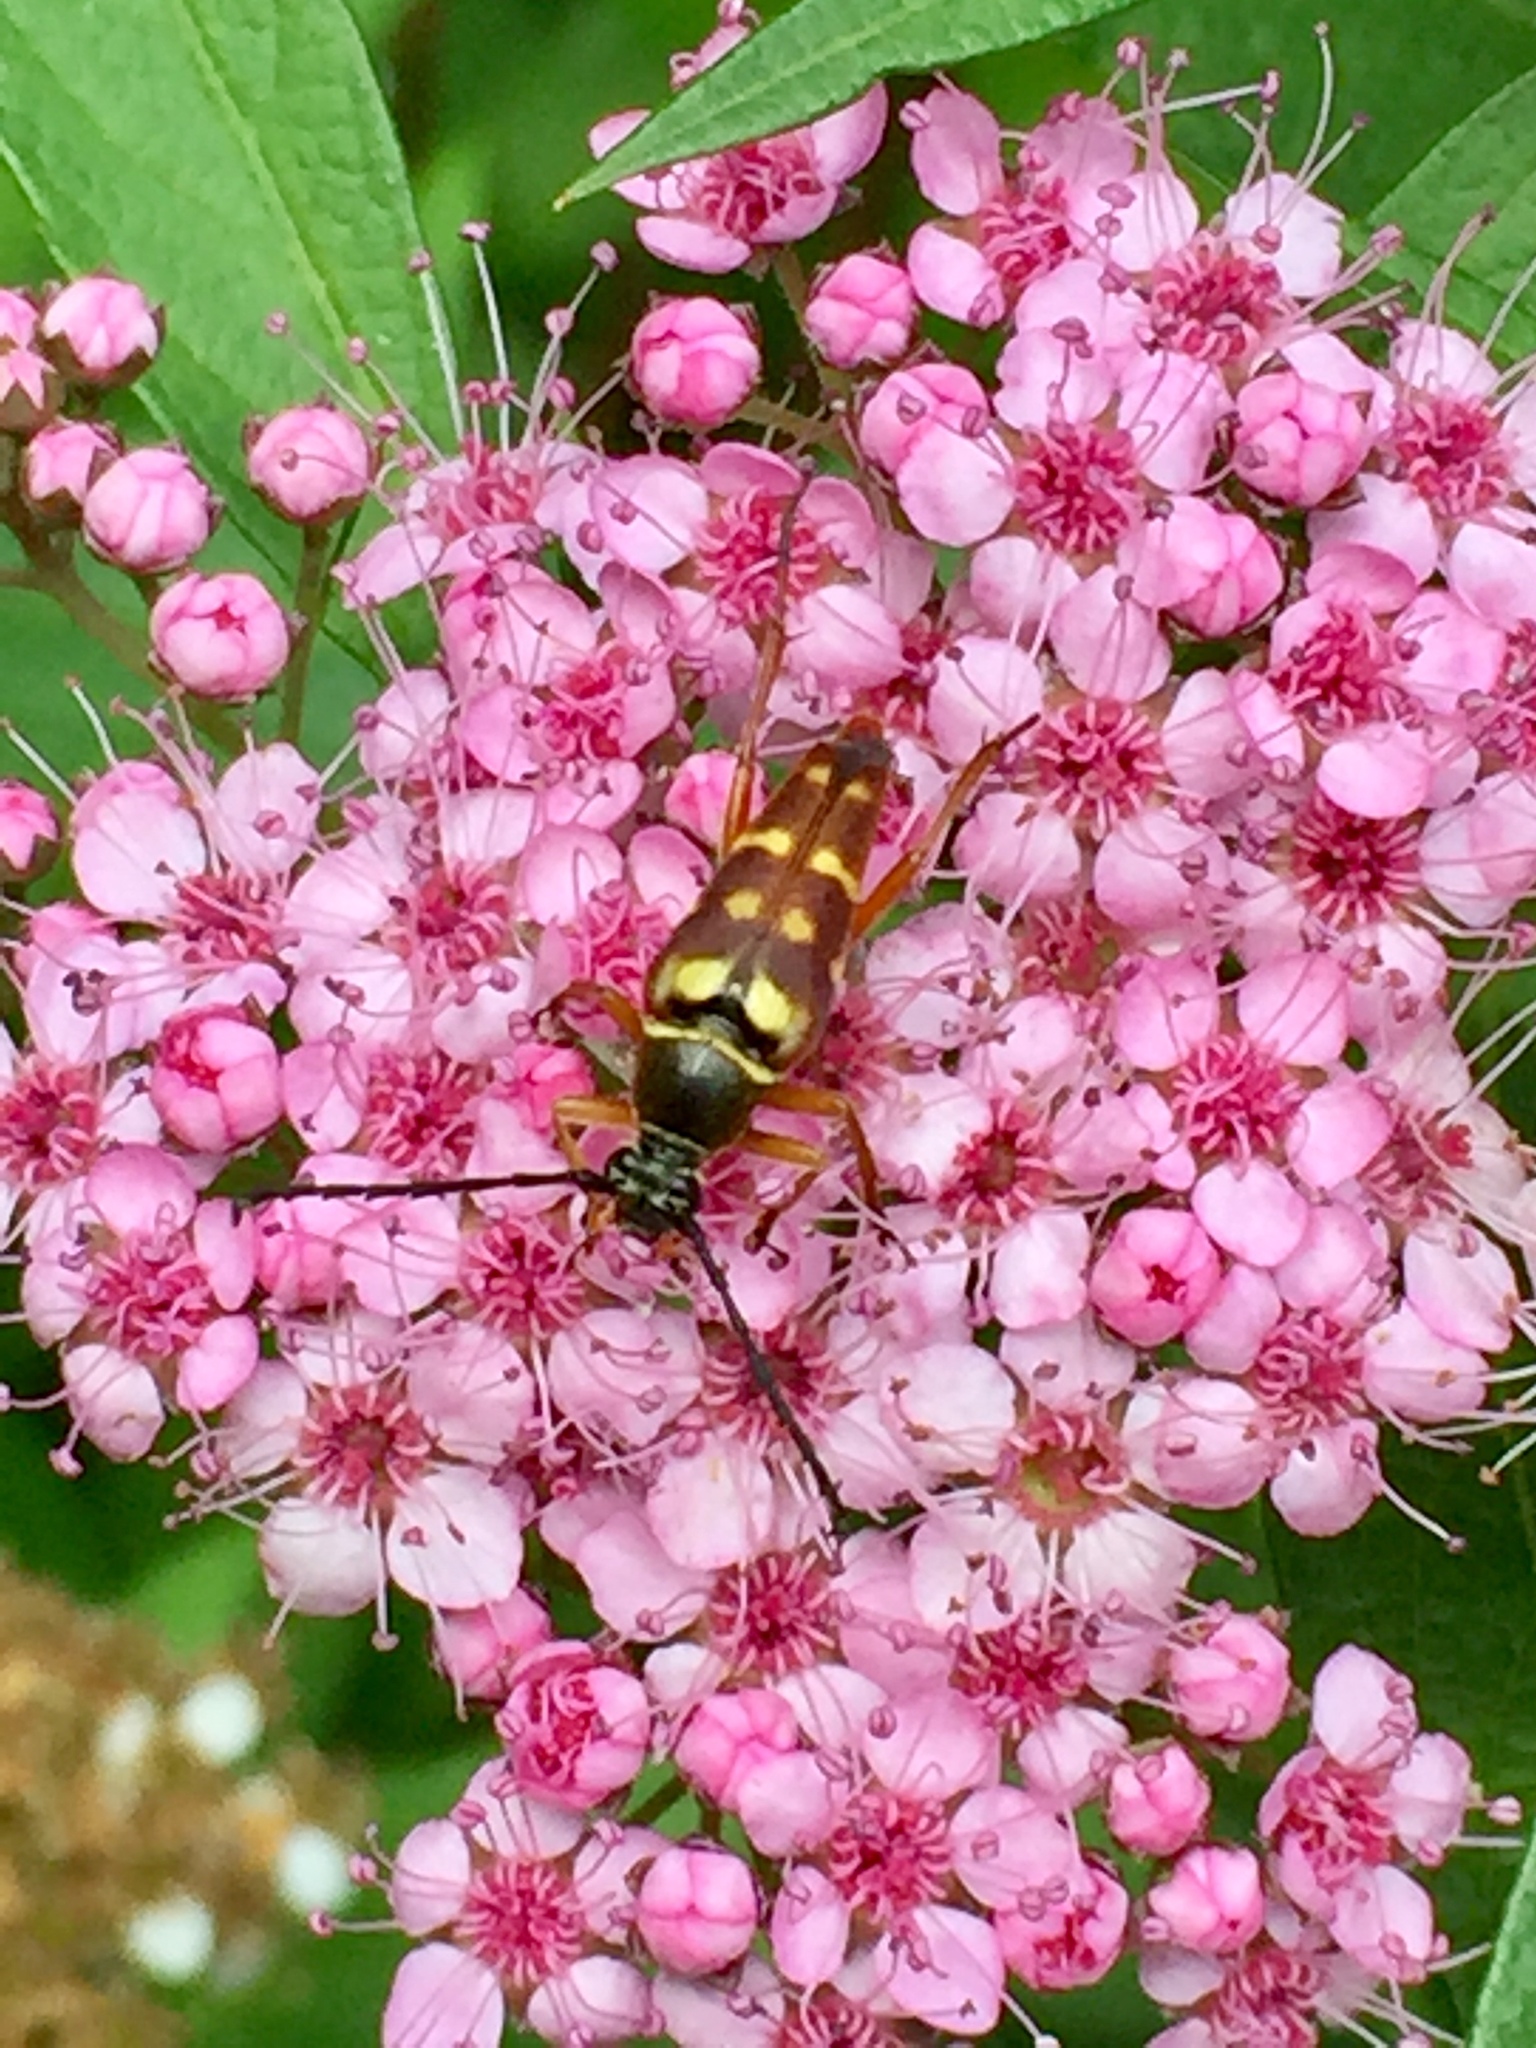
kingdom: Animalia
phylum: Arthropoda
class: Insecta
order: Coleoptera
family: Cerambycidae
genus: Typocerus
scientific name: Typocerus velutinus
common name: Banded longhorn beetle
